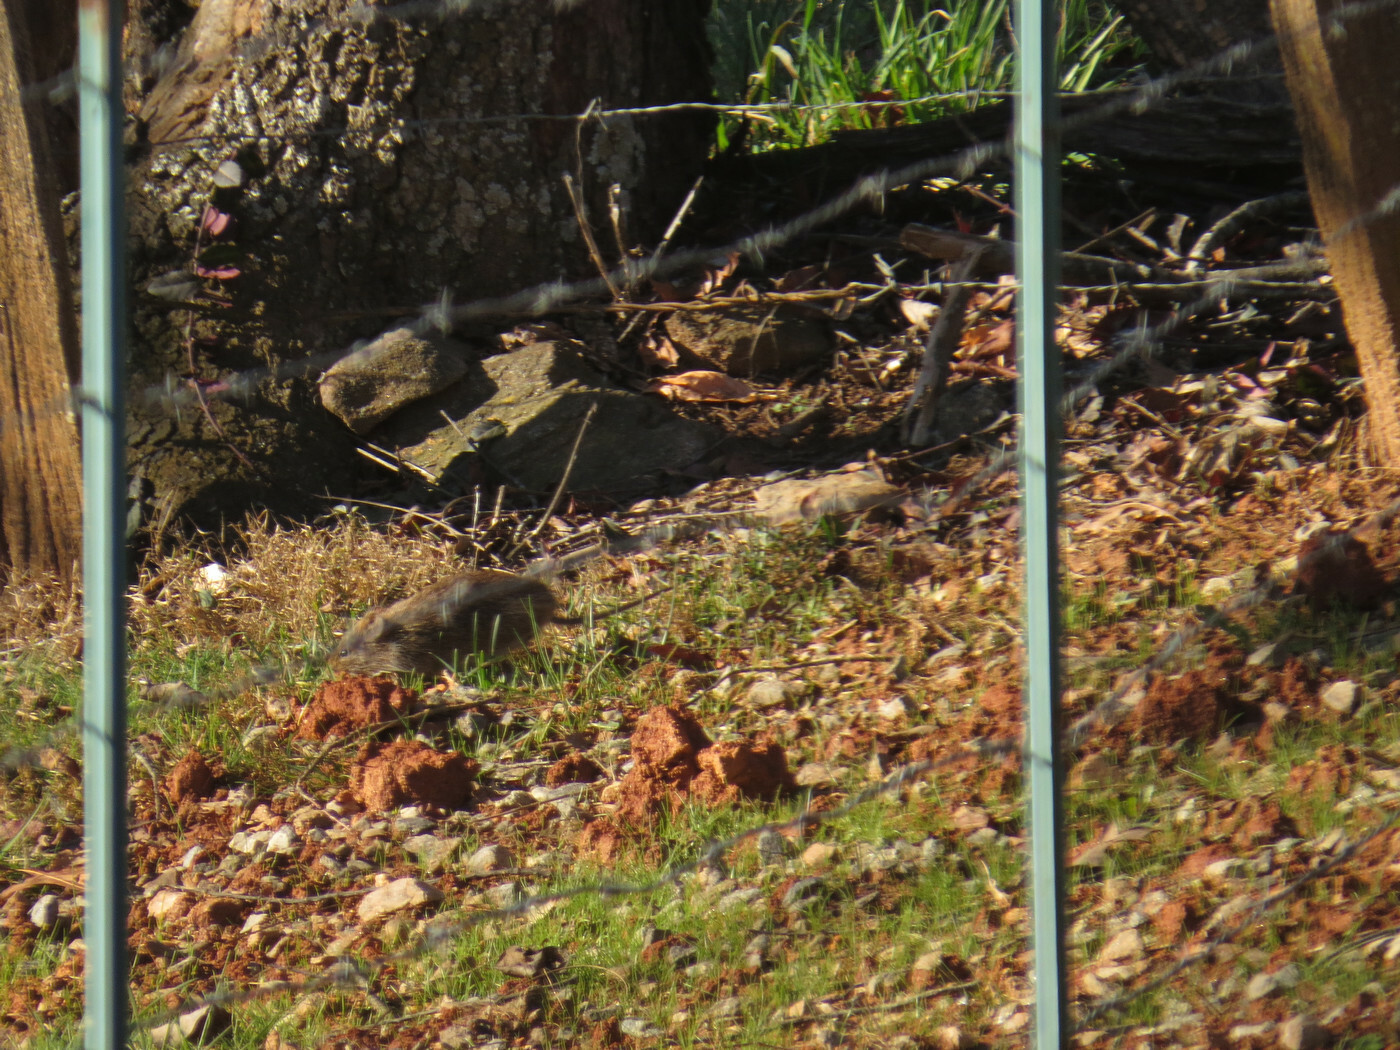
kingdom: Animalia
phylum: Chordata
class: Mammalia
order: Rodentia
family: Cricetidae
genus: Sigmodon
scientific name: Sigmodon hispidus
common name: Hispid cotton rat
